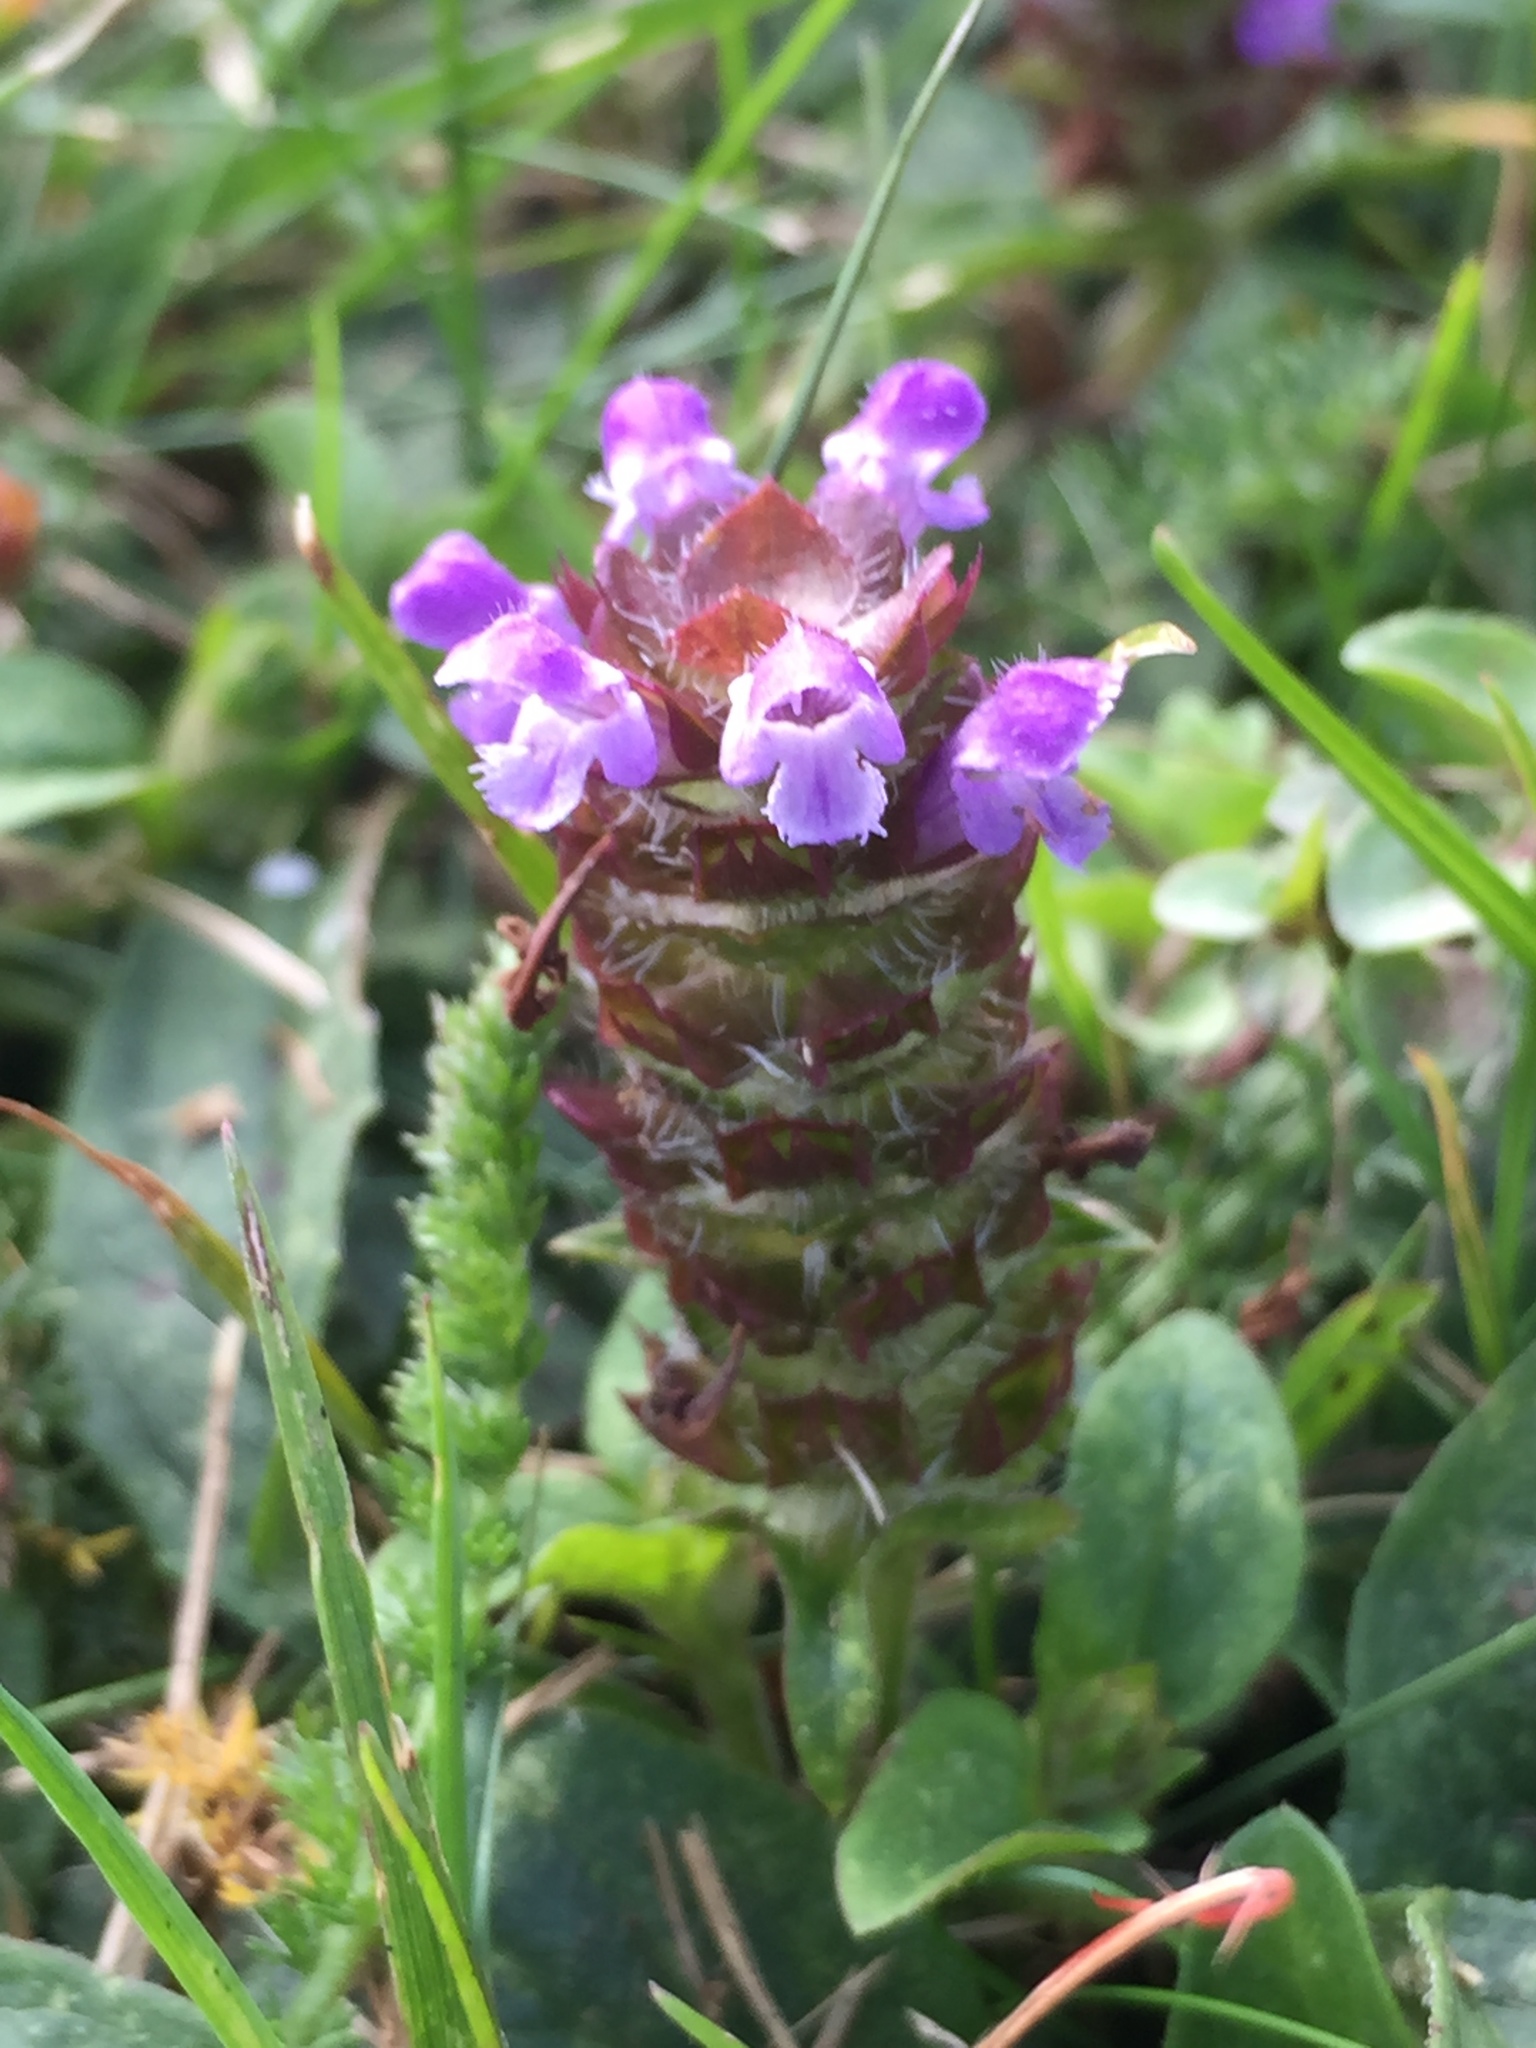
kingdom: Plantae
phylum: Tracheophyta
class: Magnoliopsida
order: Lamiales
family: Lamiaceae
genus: Prunella
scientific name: Prunella vulgaris
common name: Heal-all
